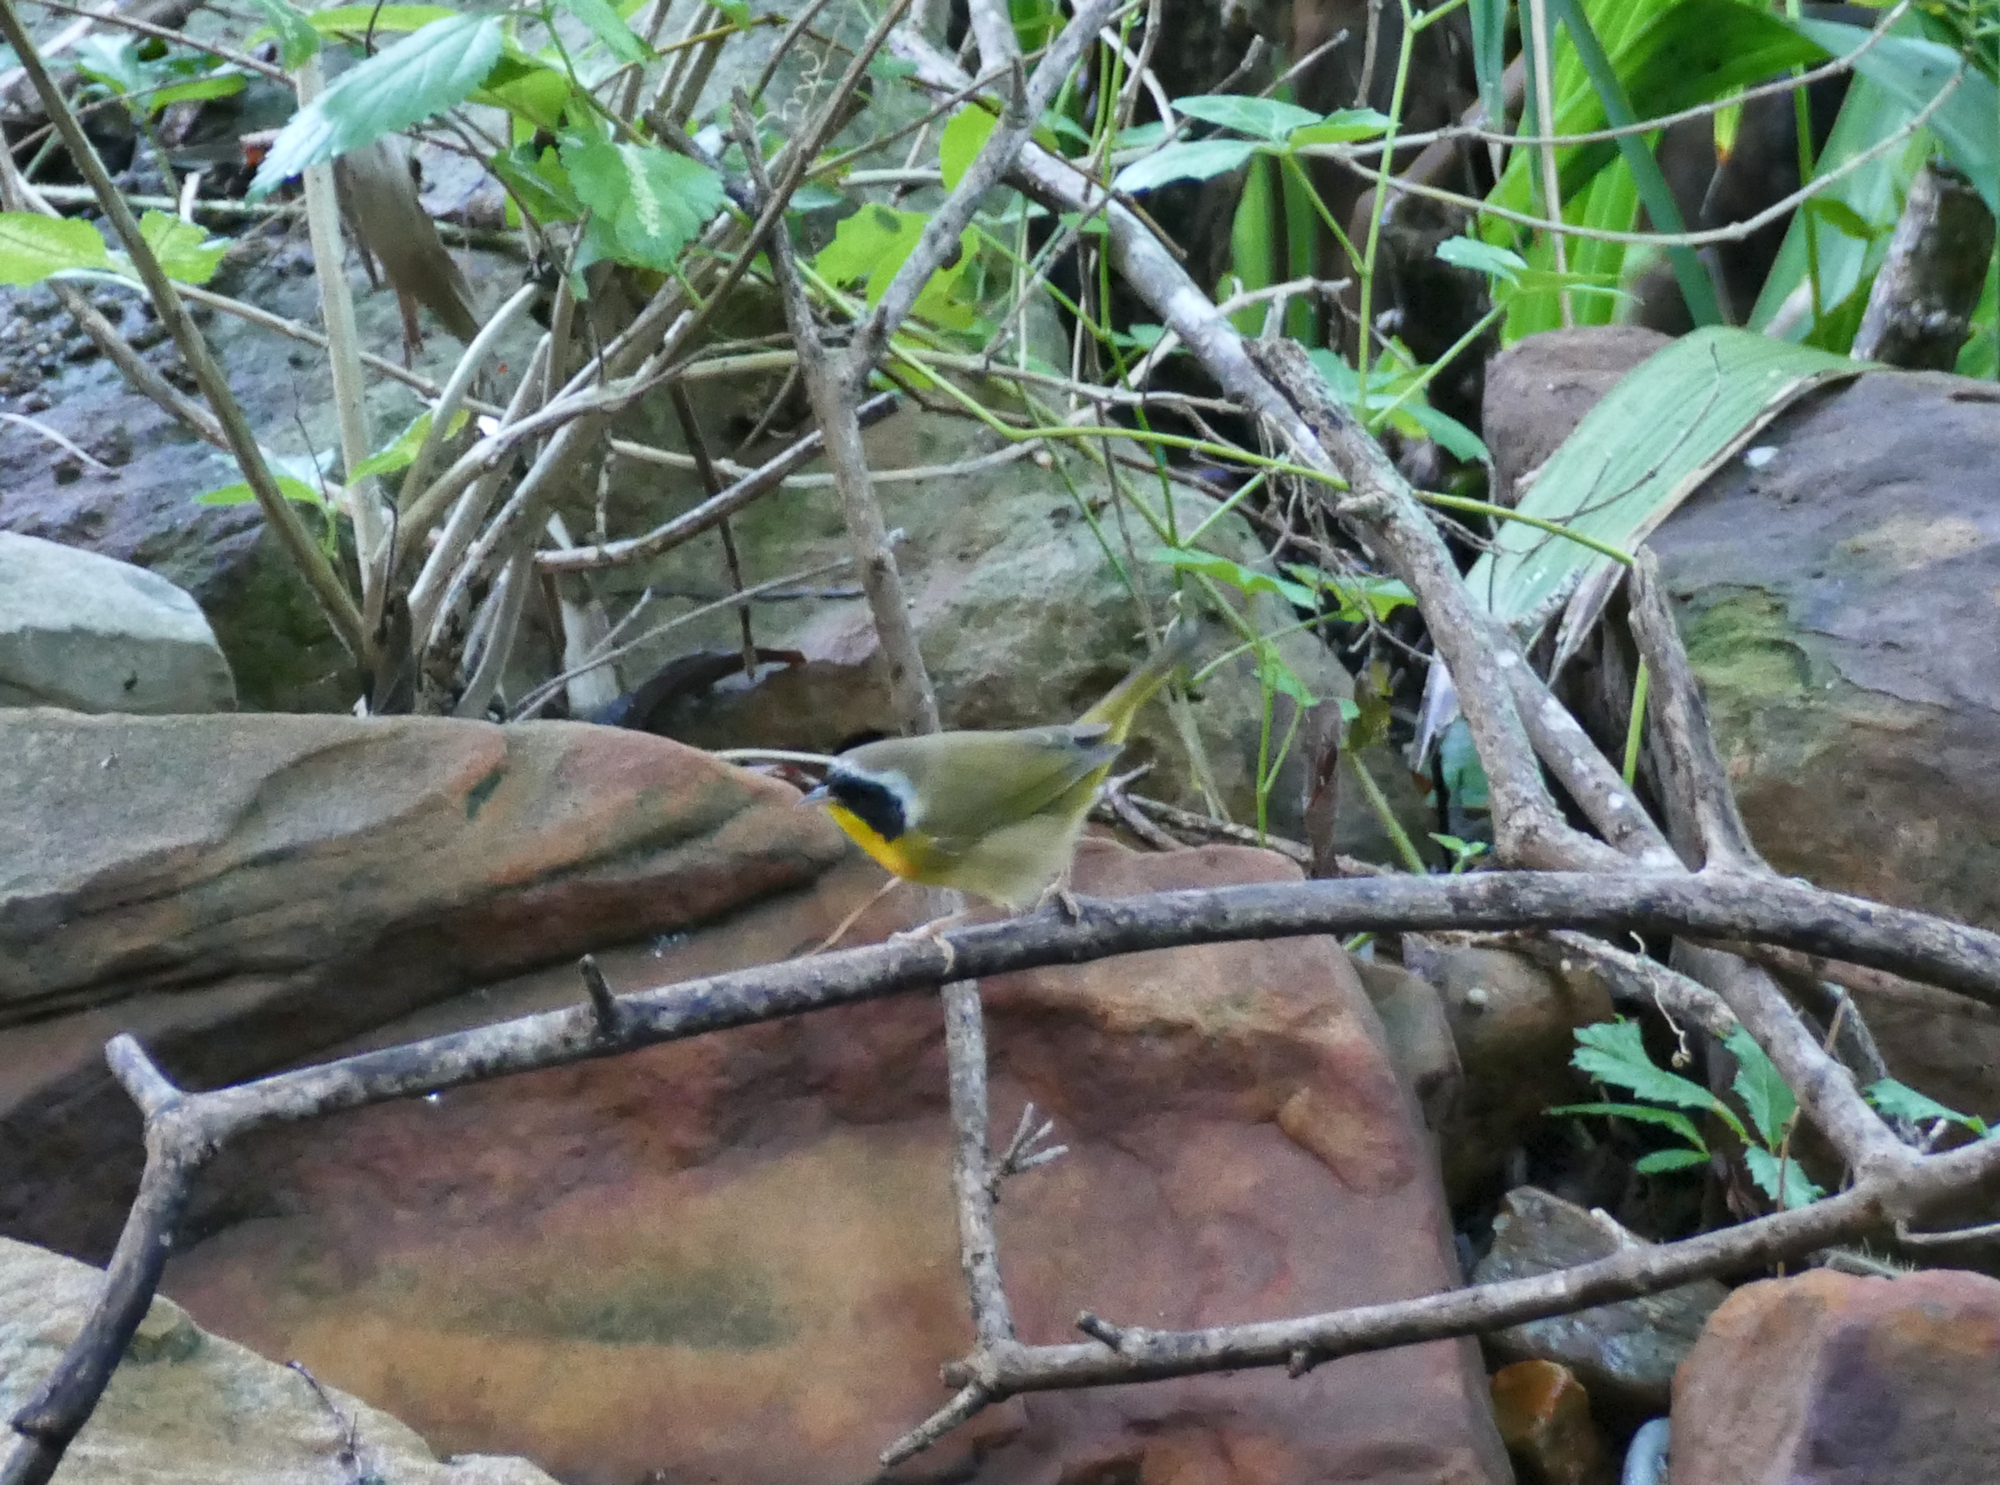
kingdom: Animalia
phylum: Chordata
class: Aves
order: Passeriformes
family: Parulidae
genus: Geothlypis
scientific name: Geothlypis trichas
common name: Common yellowthroat
